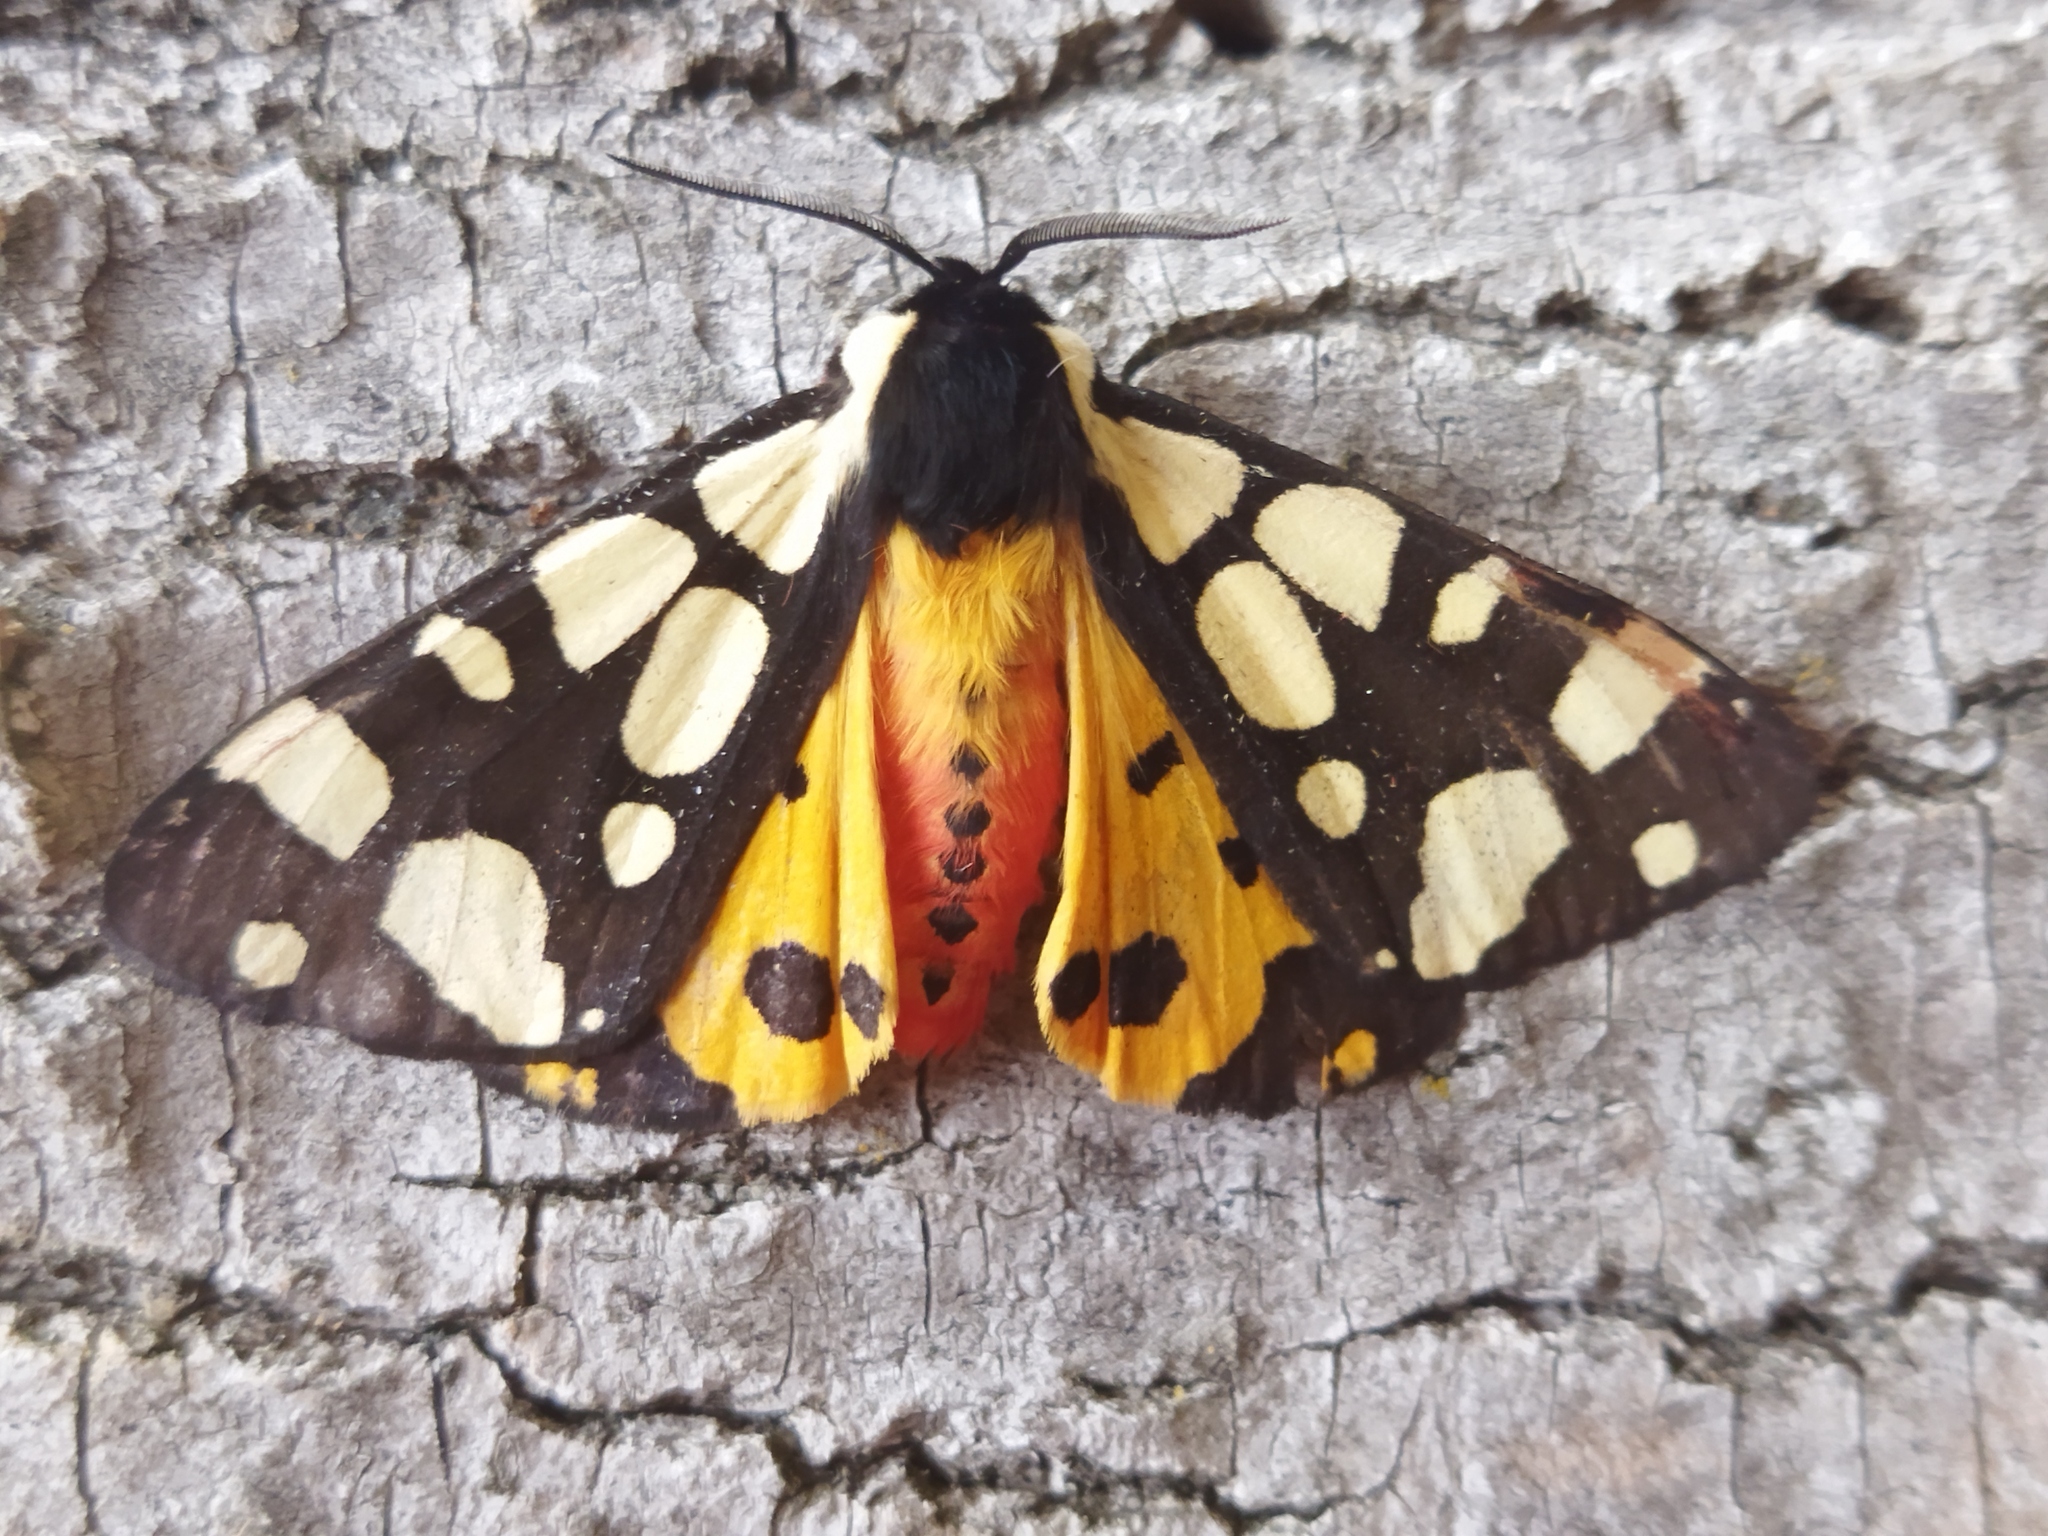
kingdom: Animalia
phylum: Arthropoda
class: Insecta
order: Lepidoptera
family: Erebidae
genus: Epicallia
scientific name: Epicallia villica
